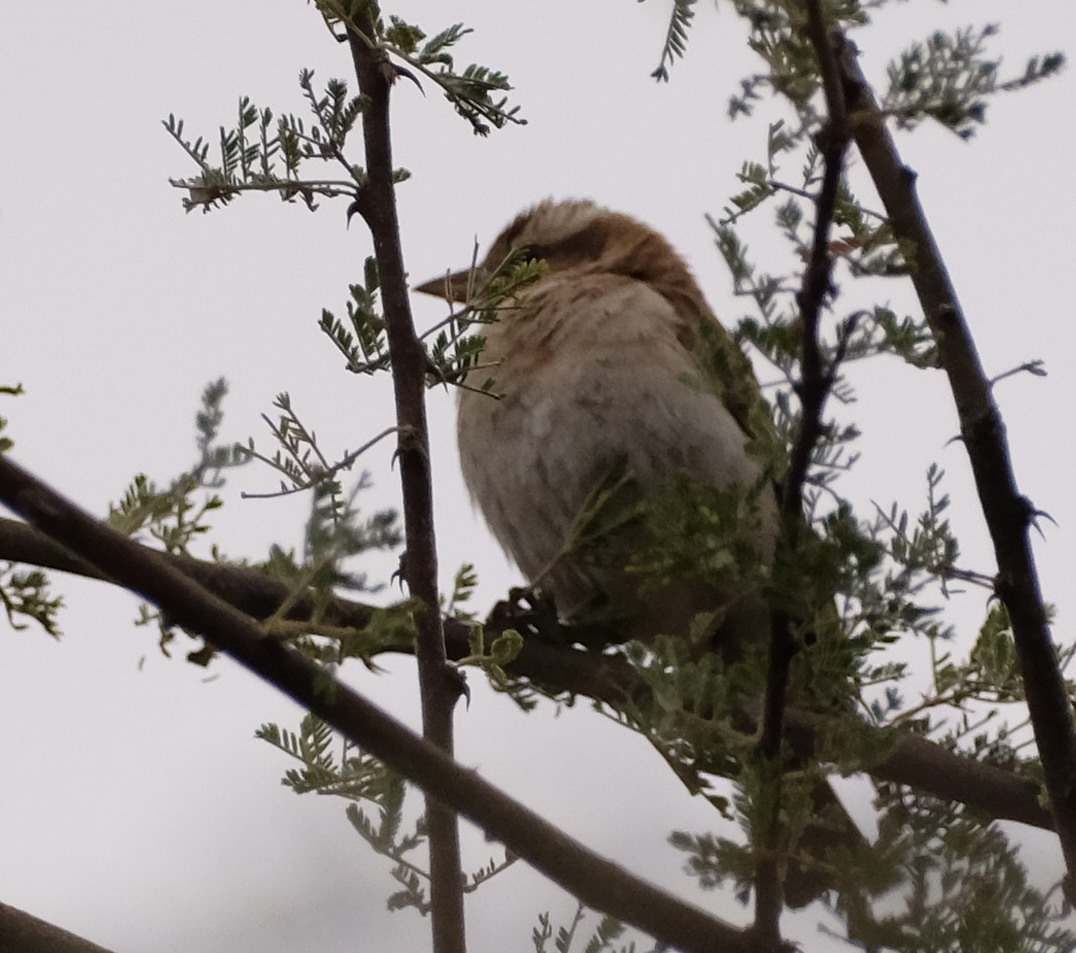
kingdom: Animalia
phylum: Chordata
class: Aves
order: Passeriformes
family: Passeridae
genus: Gymnoris
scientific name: Gymnoris superciliaris
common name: Yellow-throated petronia
